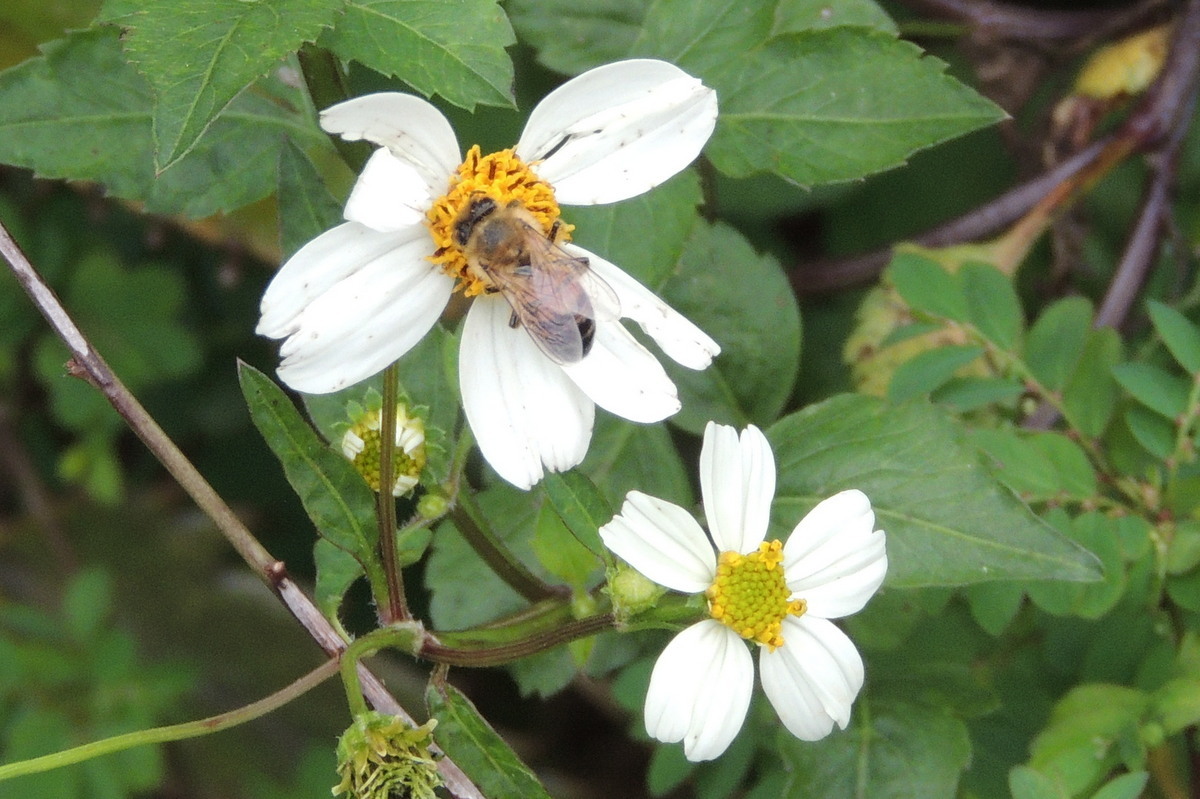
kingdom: Animalia
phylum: Arthropoda
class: Insecta
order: Hymenoptera
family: Apidae
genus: Apis
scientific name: Apis mellifera
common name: Honey bee
